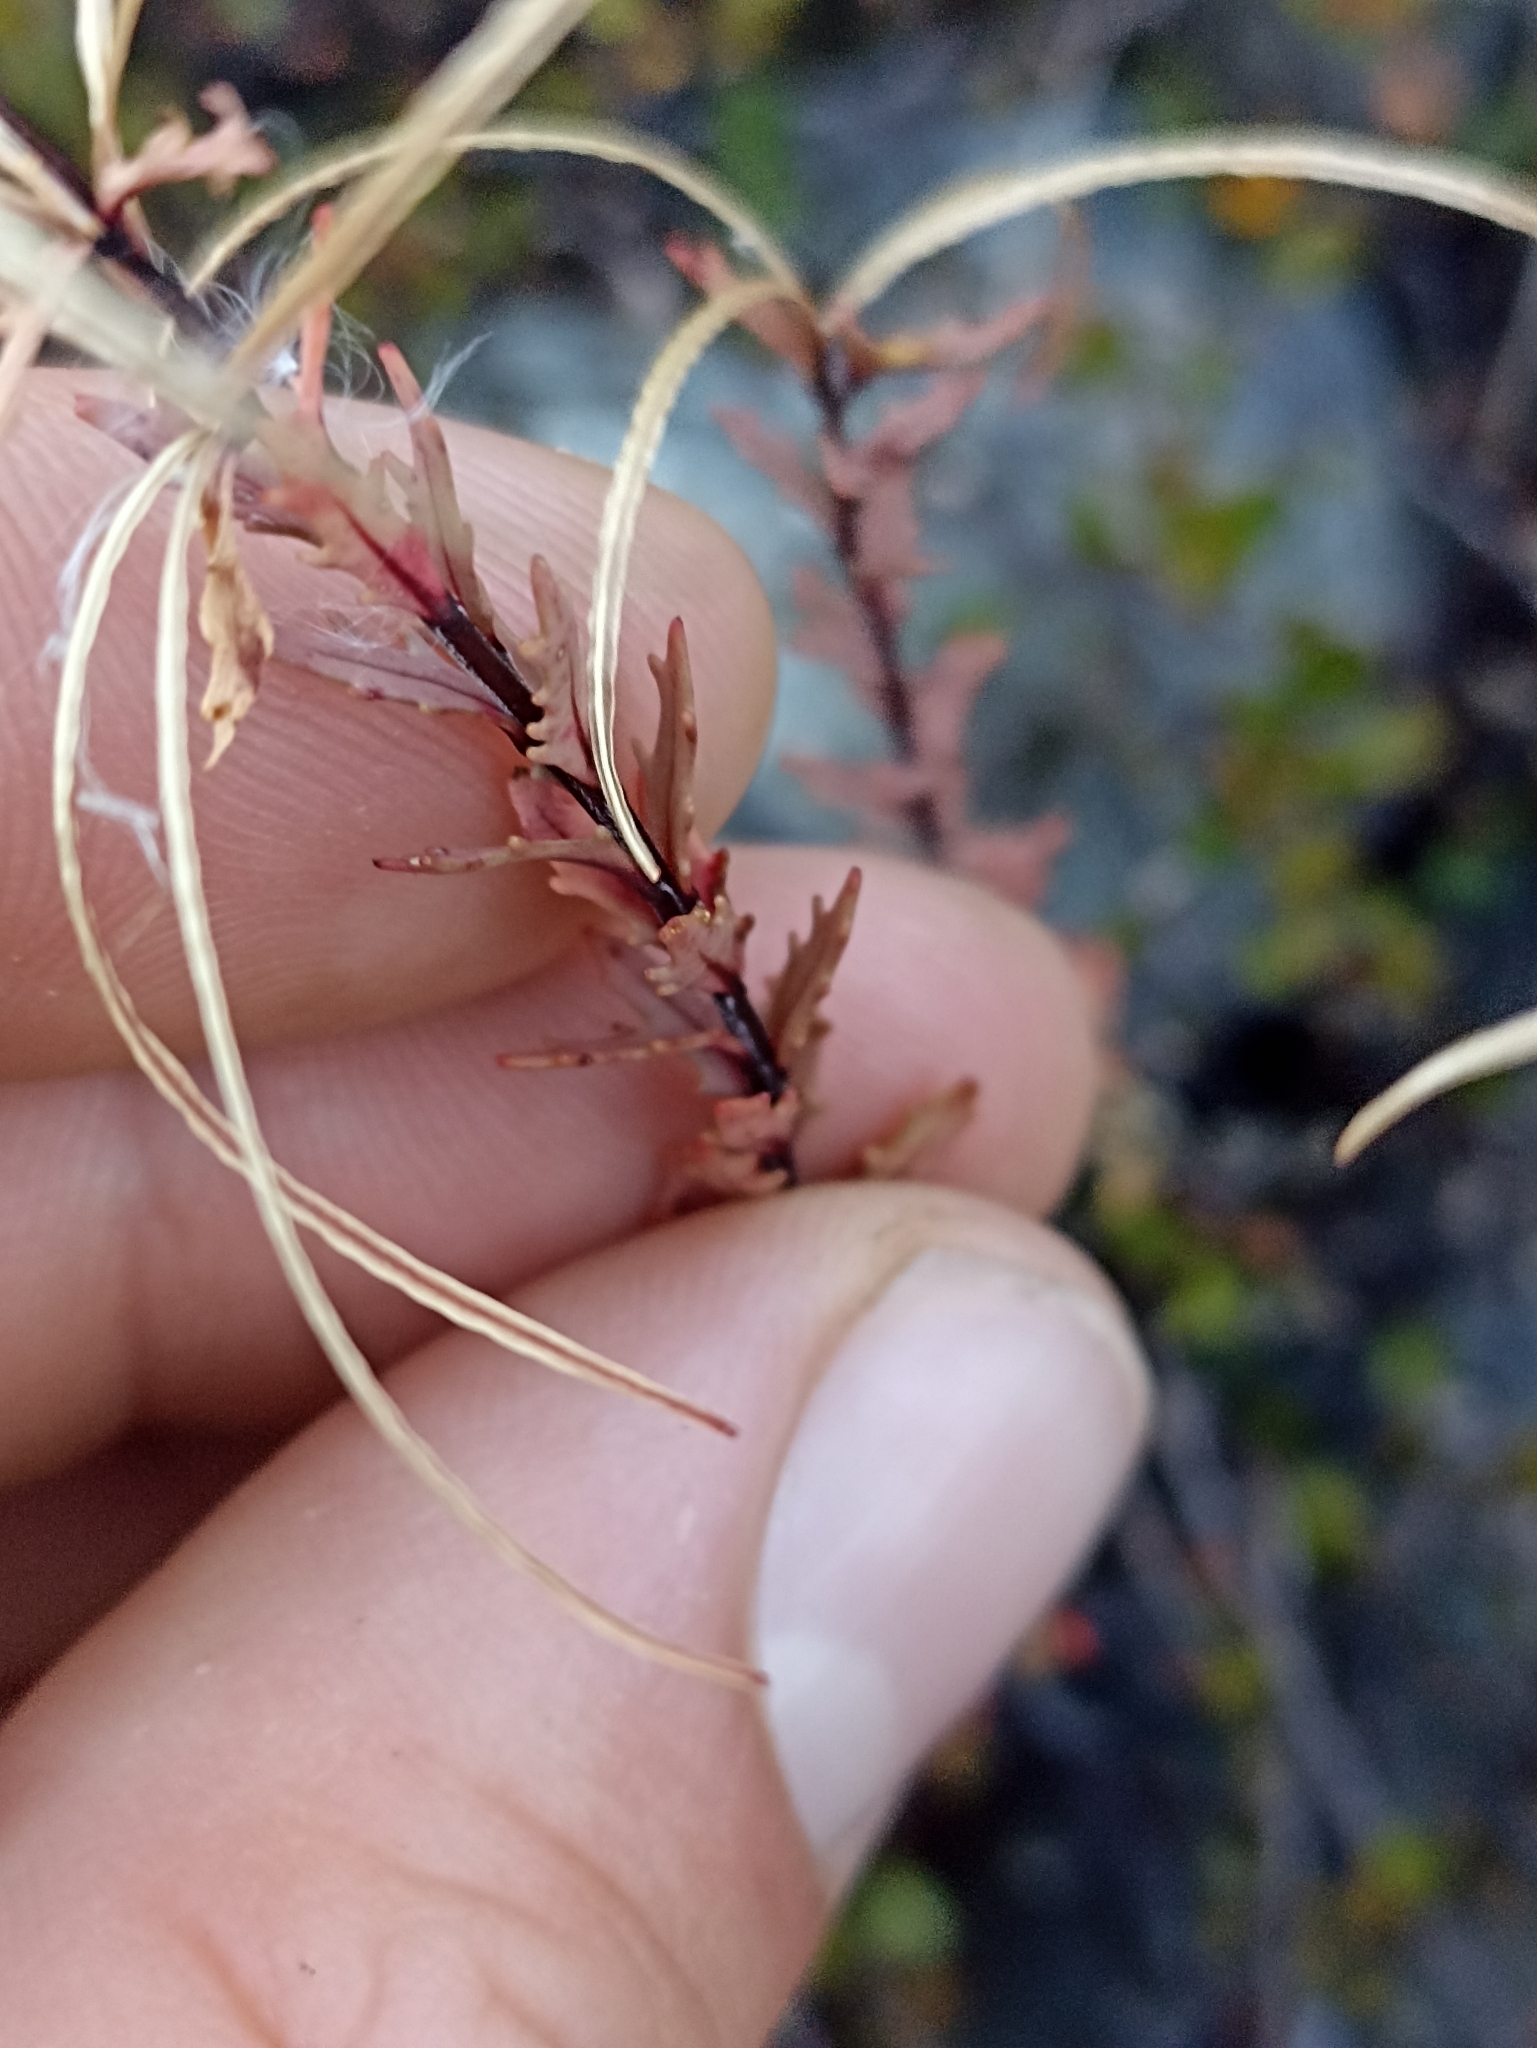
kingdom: Plantae
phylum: Tracheophyta
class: Magnoliopsida
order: Myrtales
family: Onagraceae
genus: Epilobium
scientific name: Epilobium melanocaulon
